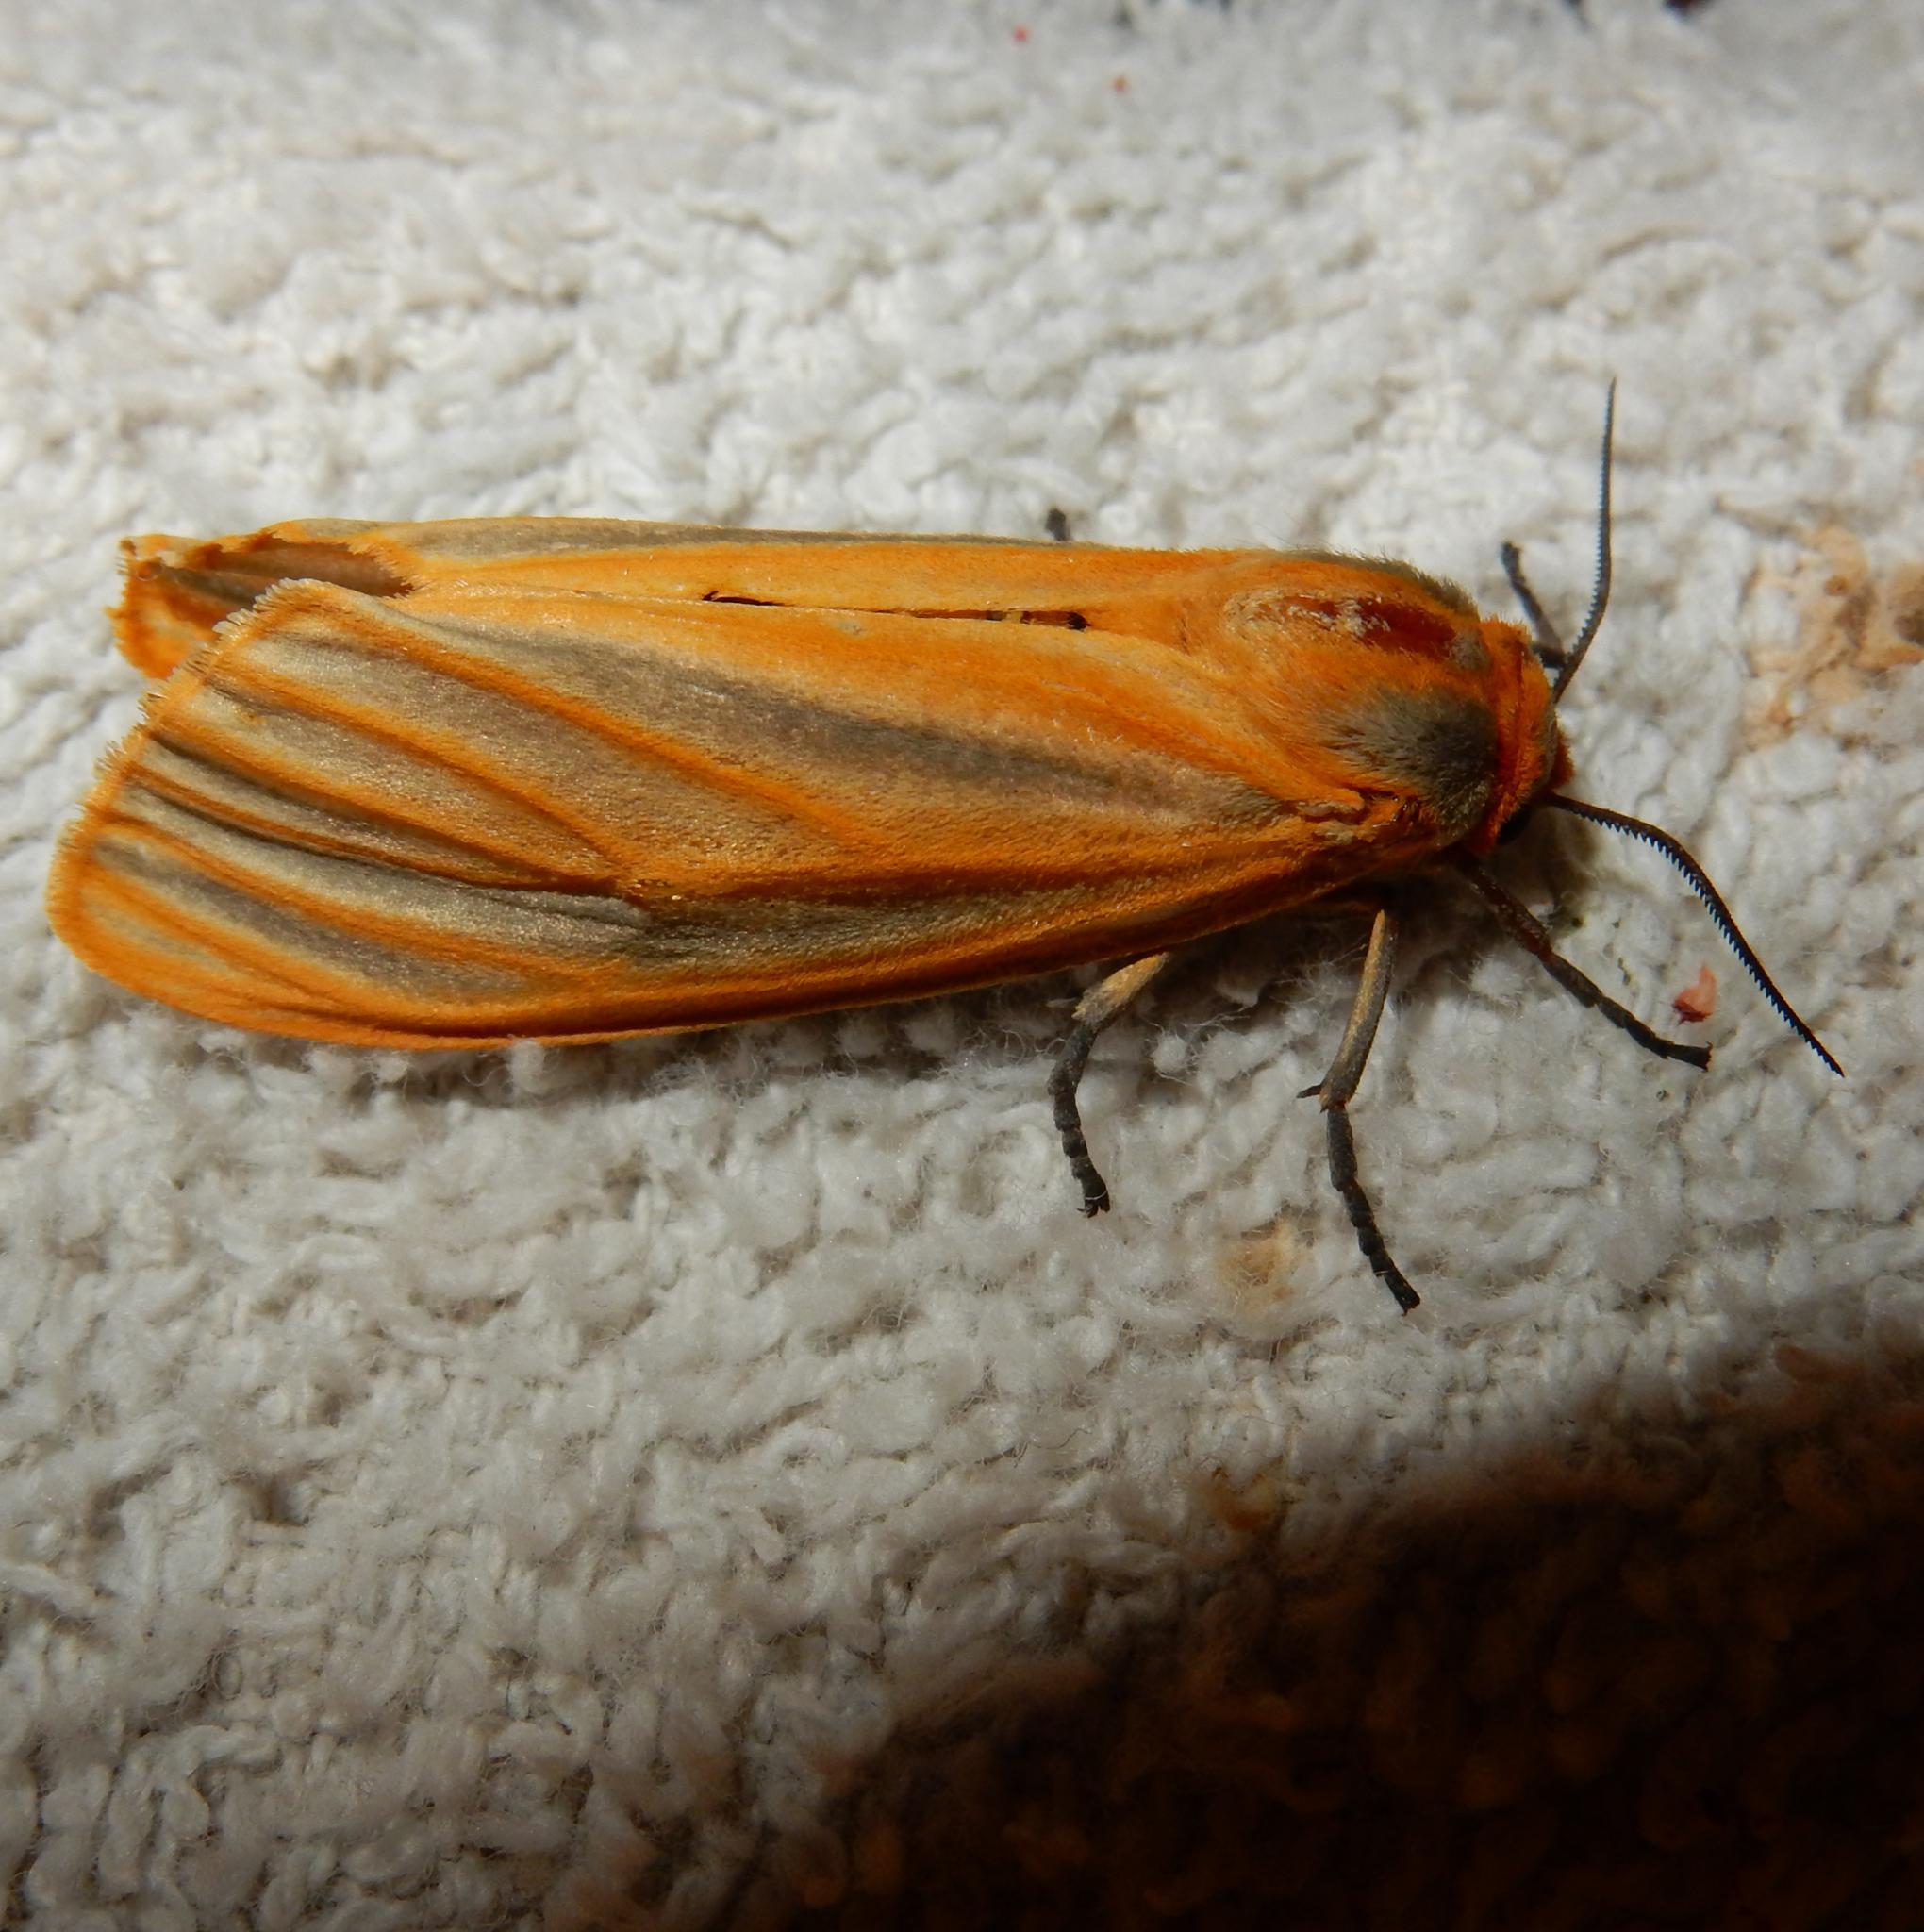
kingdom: Animalia
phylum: Arthropoda
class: Insecta
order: Lepidoptera
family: Erebidae
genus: Afromurzinia
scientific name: Afromurzinia lutescens
